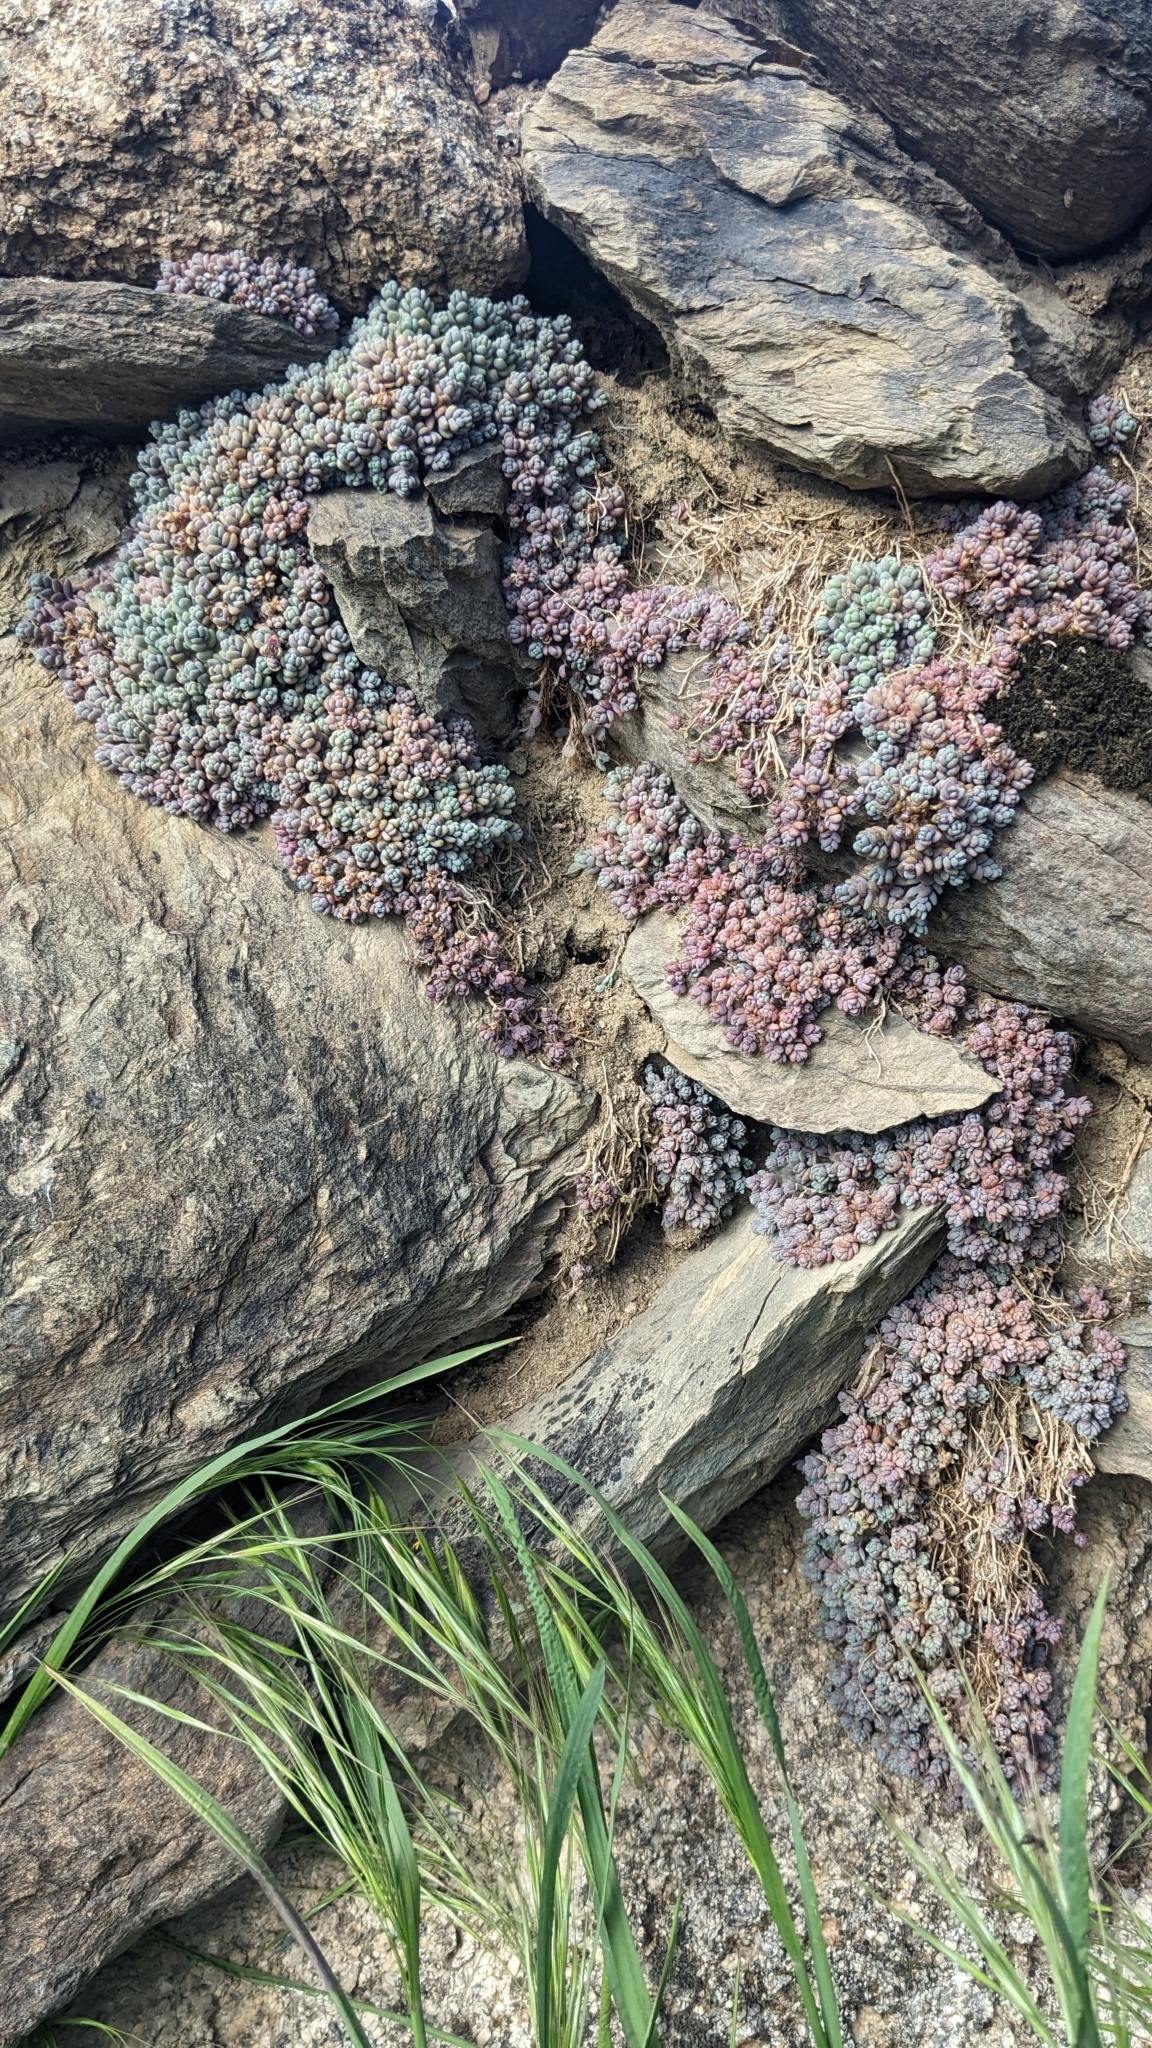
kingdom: Plantae
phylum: Tracheophyta
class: Magnoliopsida
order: Saxifragales
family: Crassulaceae
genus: Sedum
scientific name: Sedum dasyphyllum
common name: Thick-leaf stonecrop
